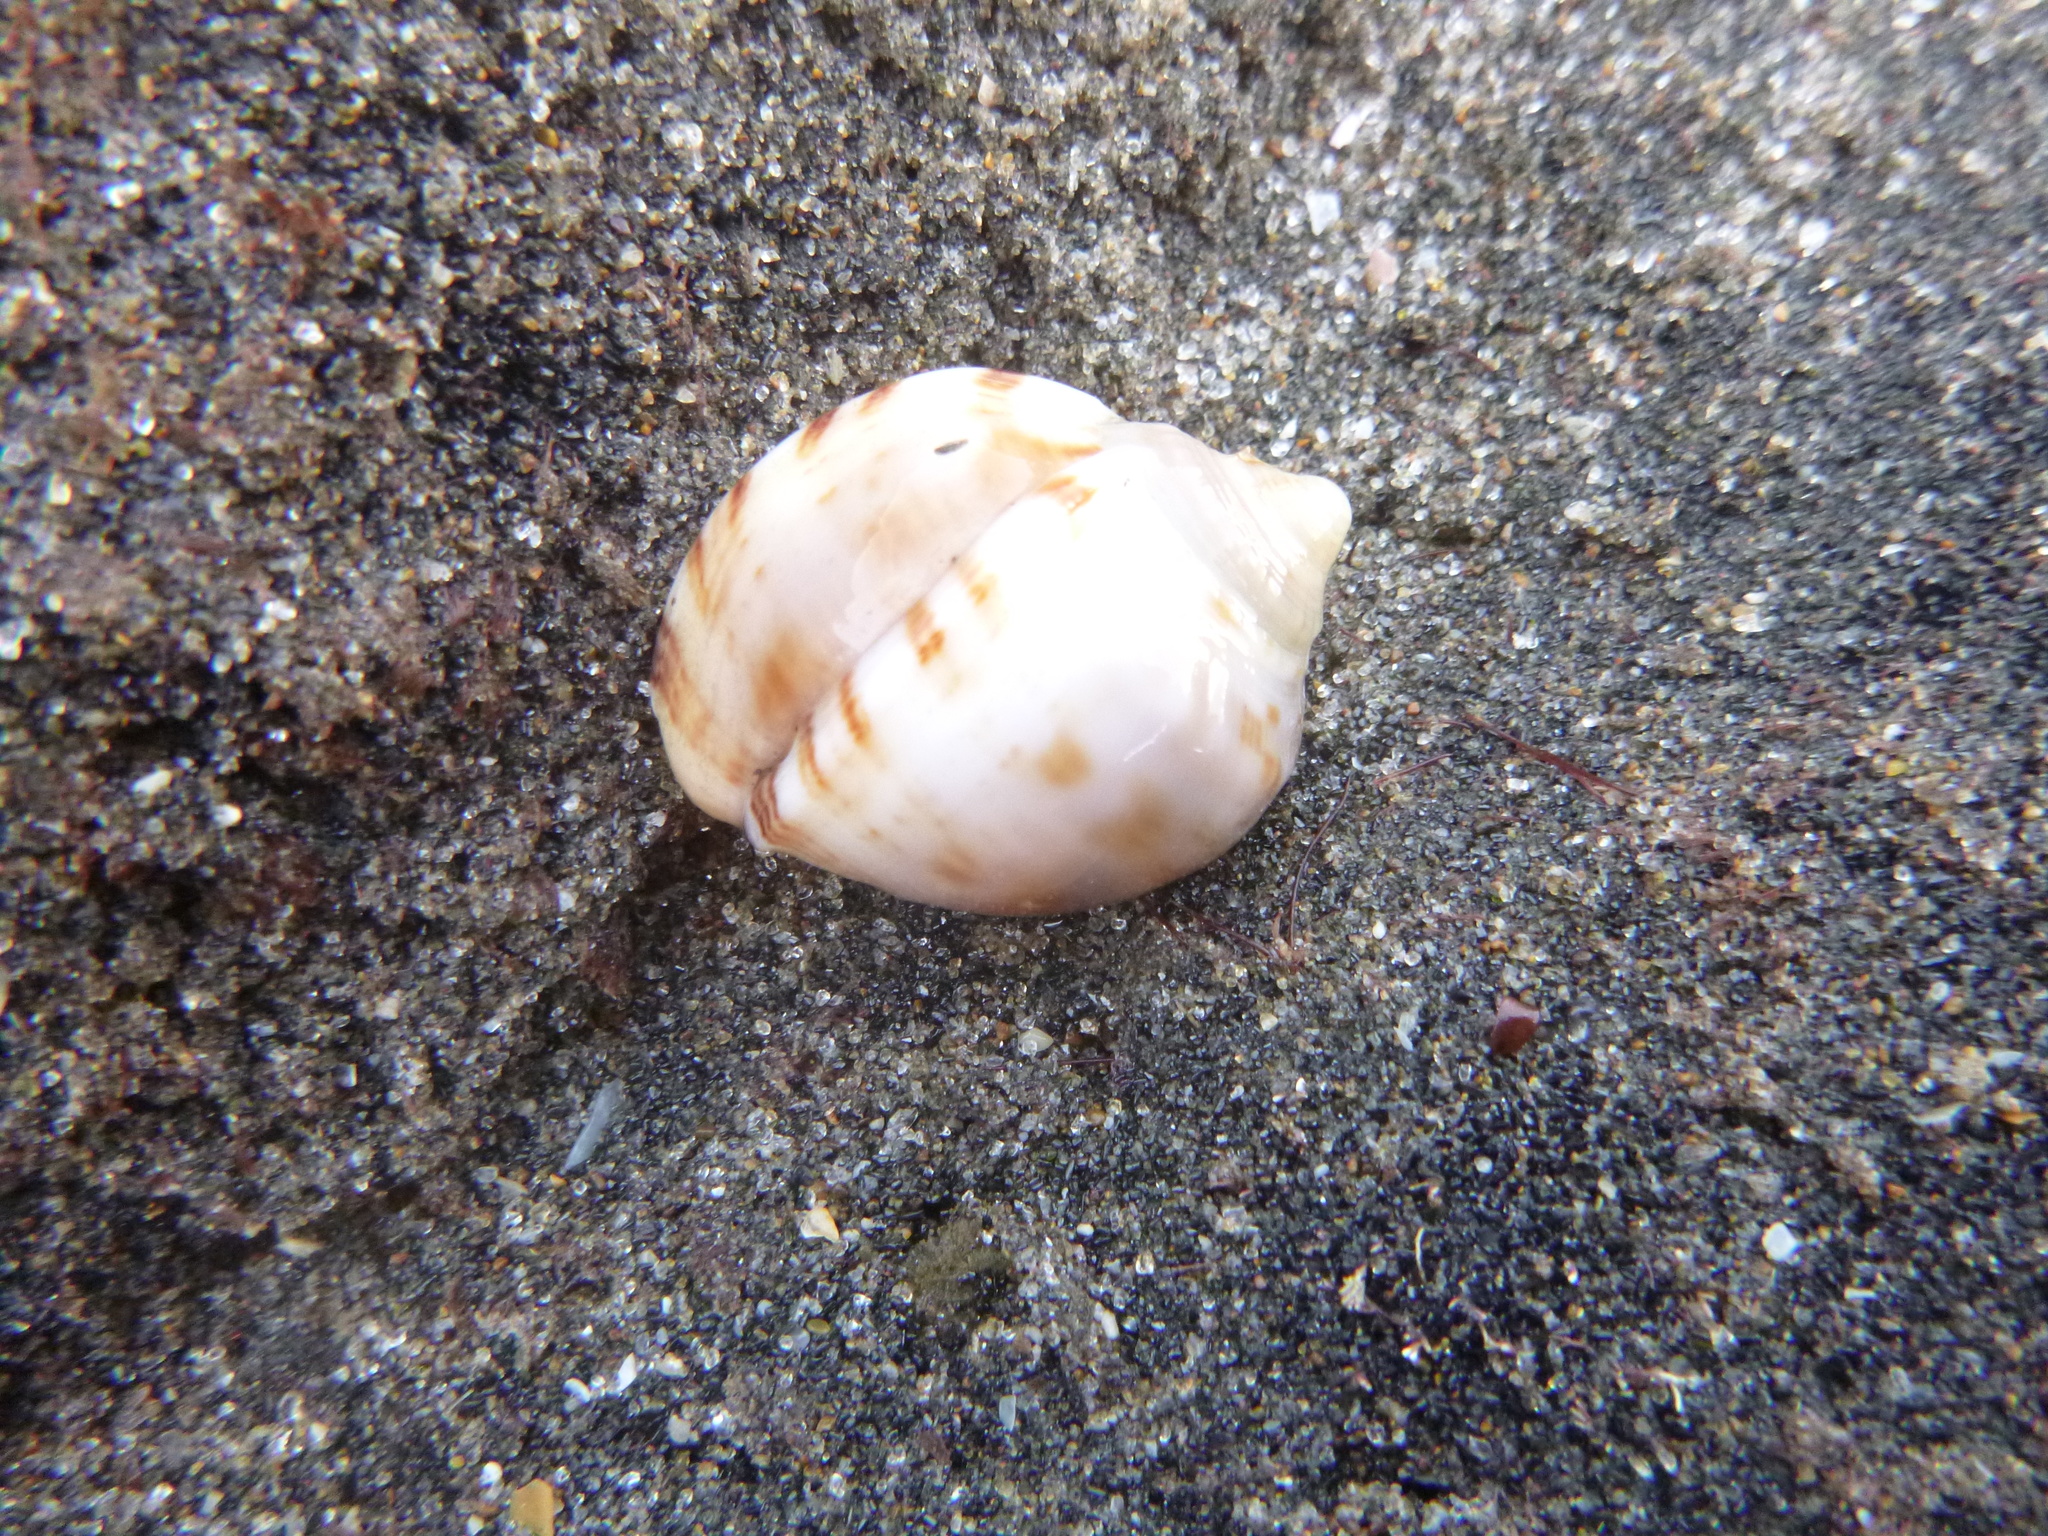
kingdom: Animalia
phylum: Mollusca
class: Gastropoda
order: Littorinimorpha
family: Cassidae
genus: Semicassis
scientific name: Semicassis pyrum
